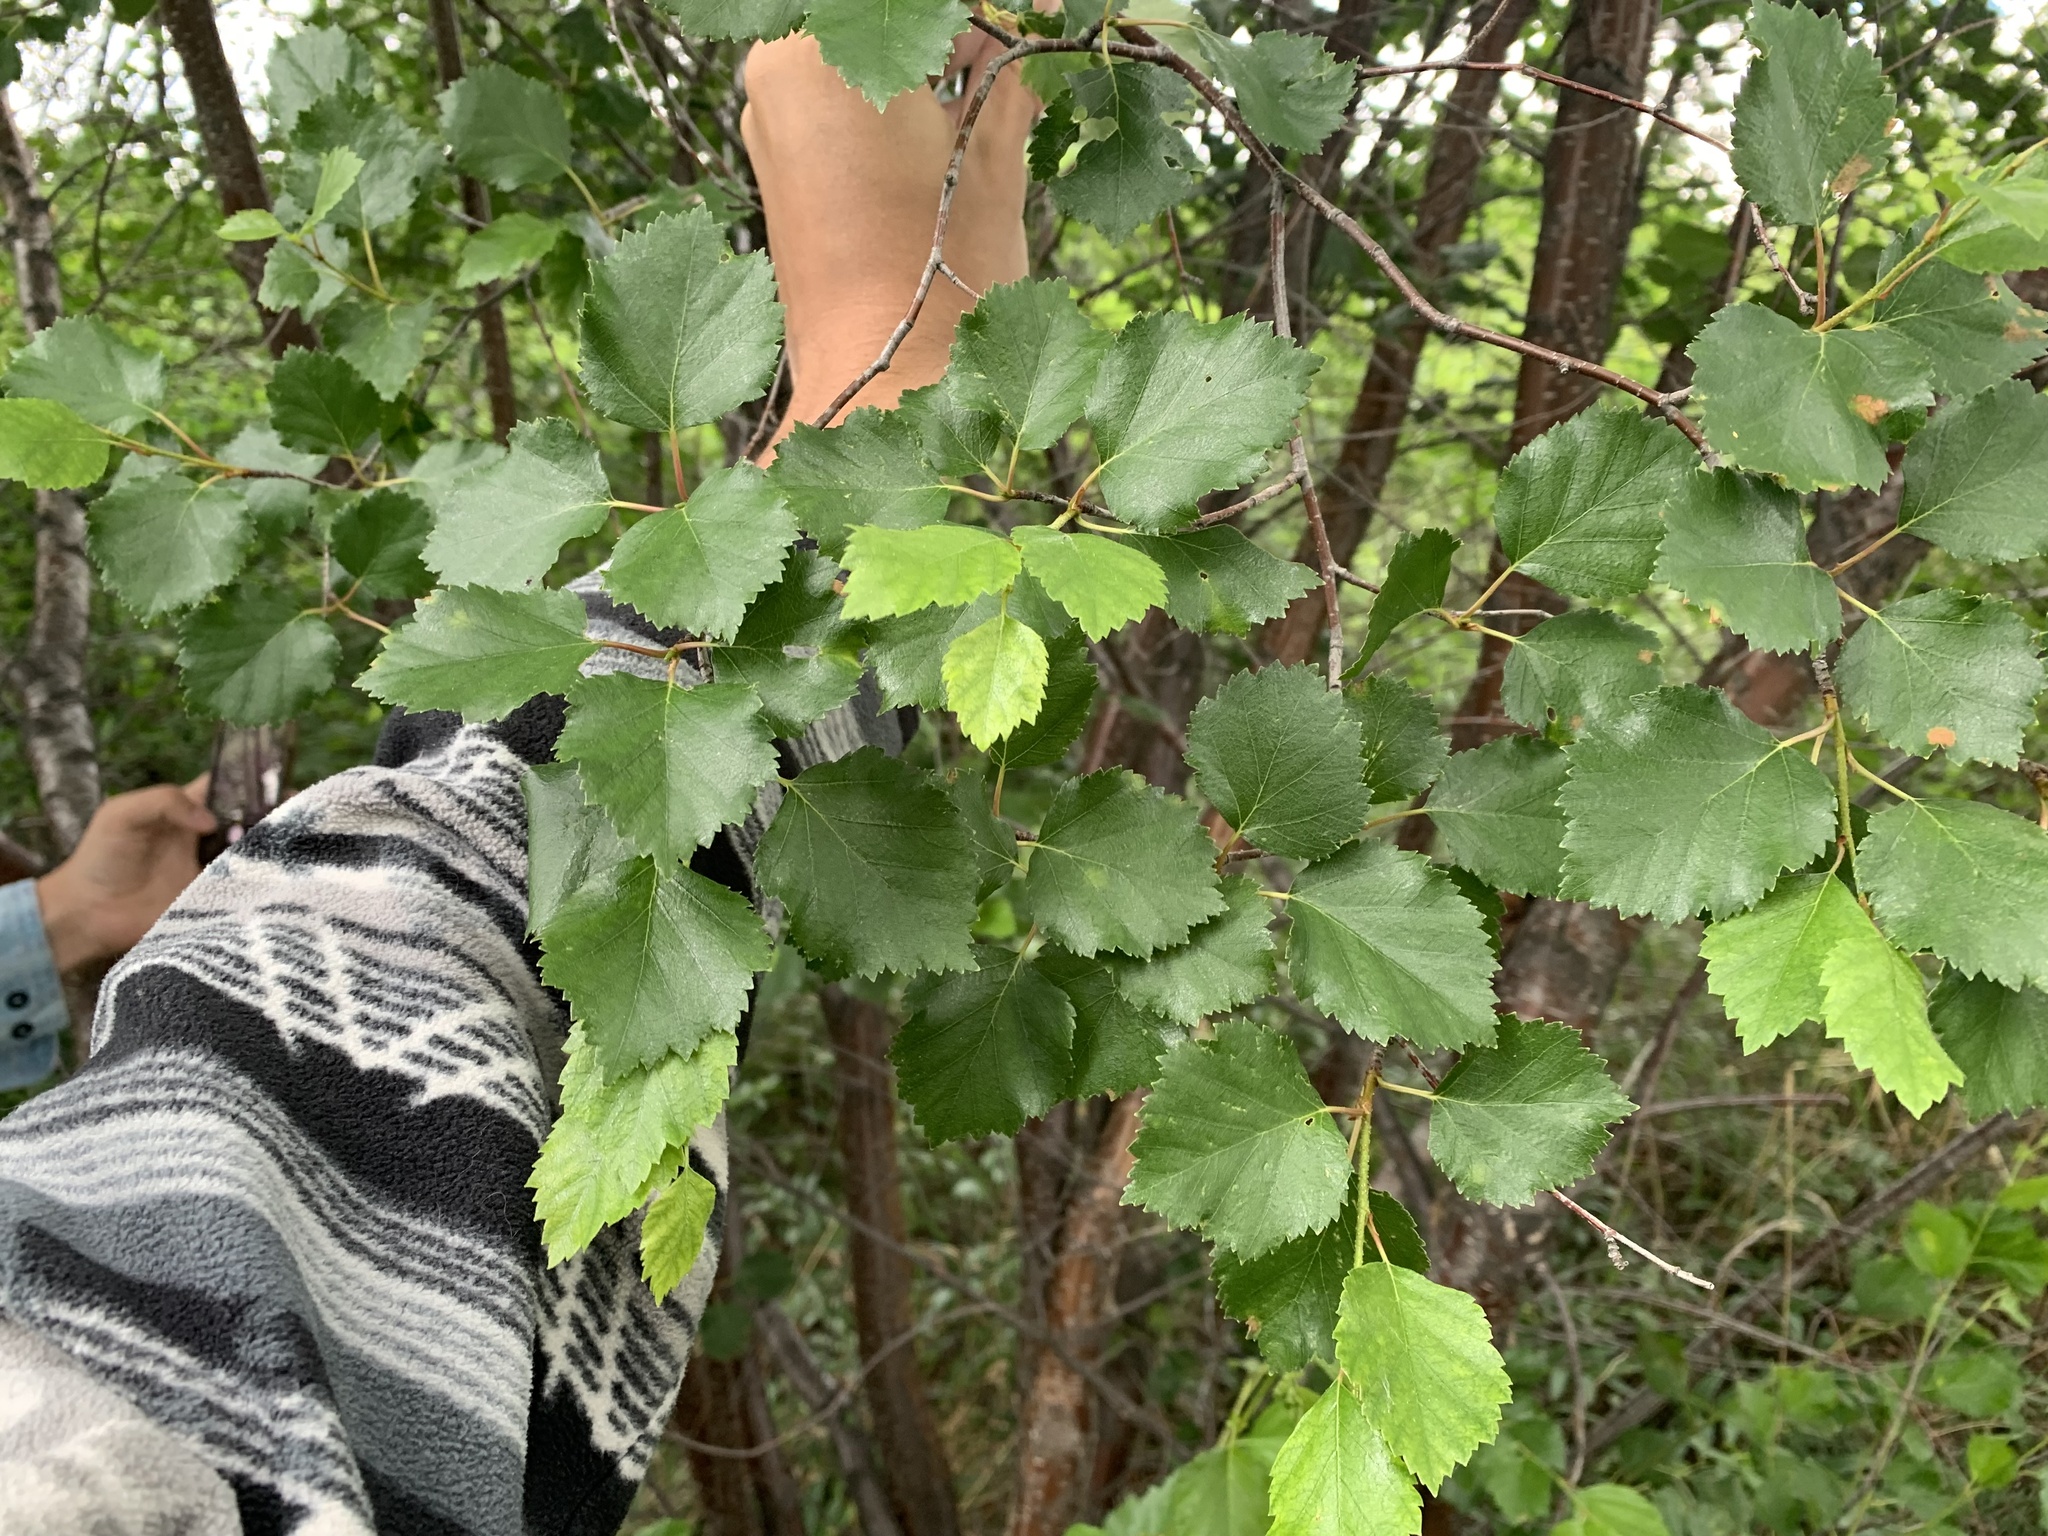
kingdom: Plantae
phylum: Tracheophyta
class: Magnoliopsida
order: Fagales
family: Betulaceae
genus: Betula
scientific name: Betula occidentalis
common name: River birch
